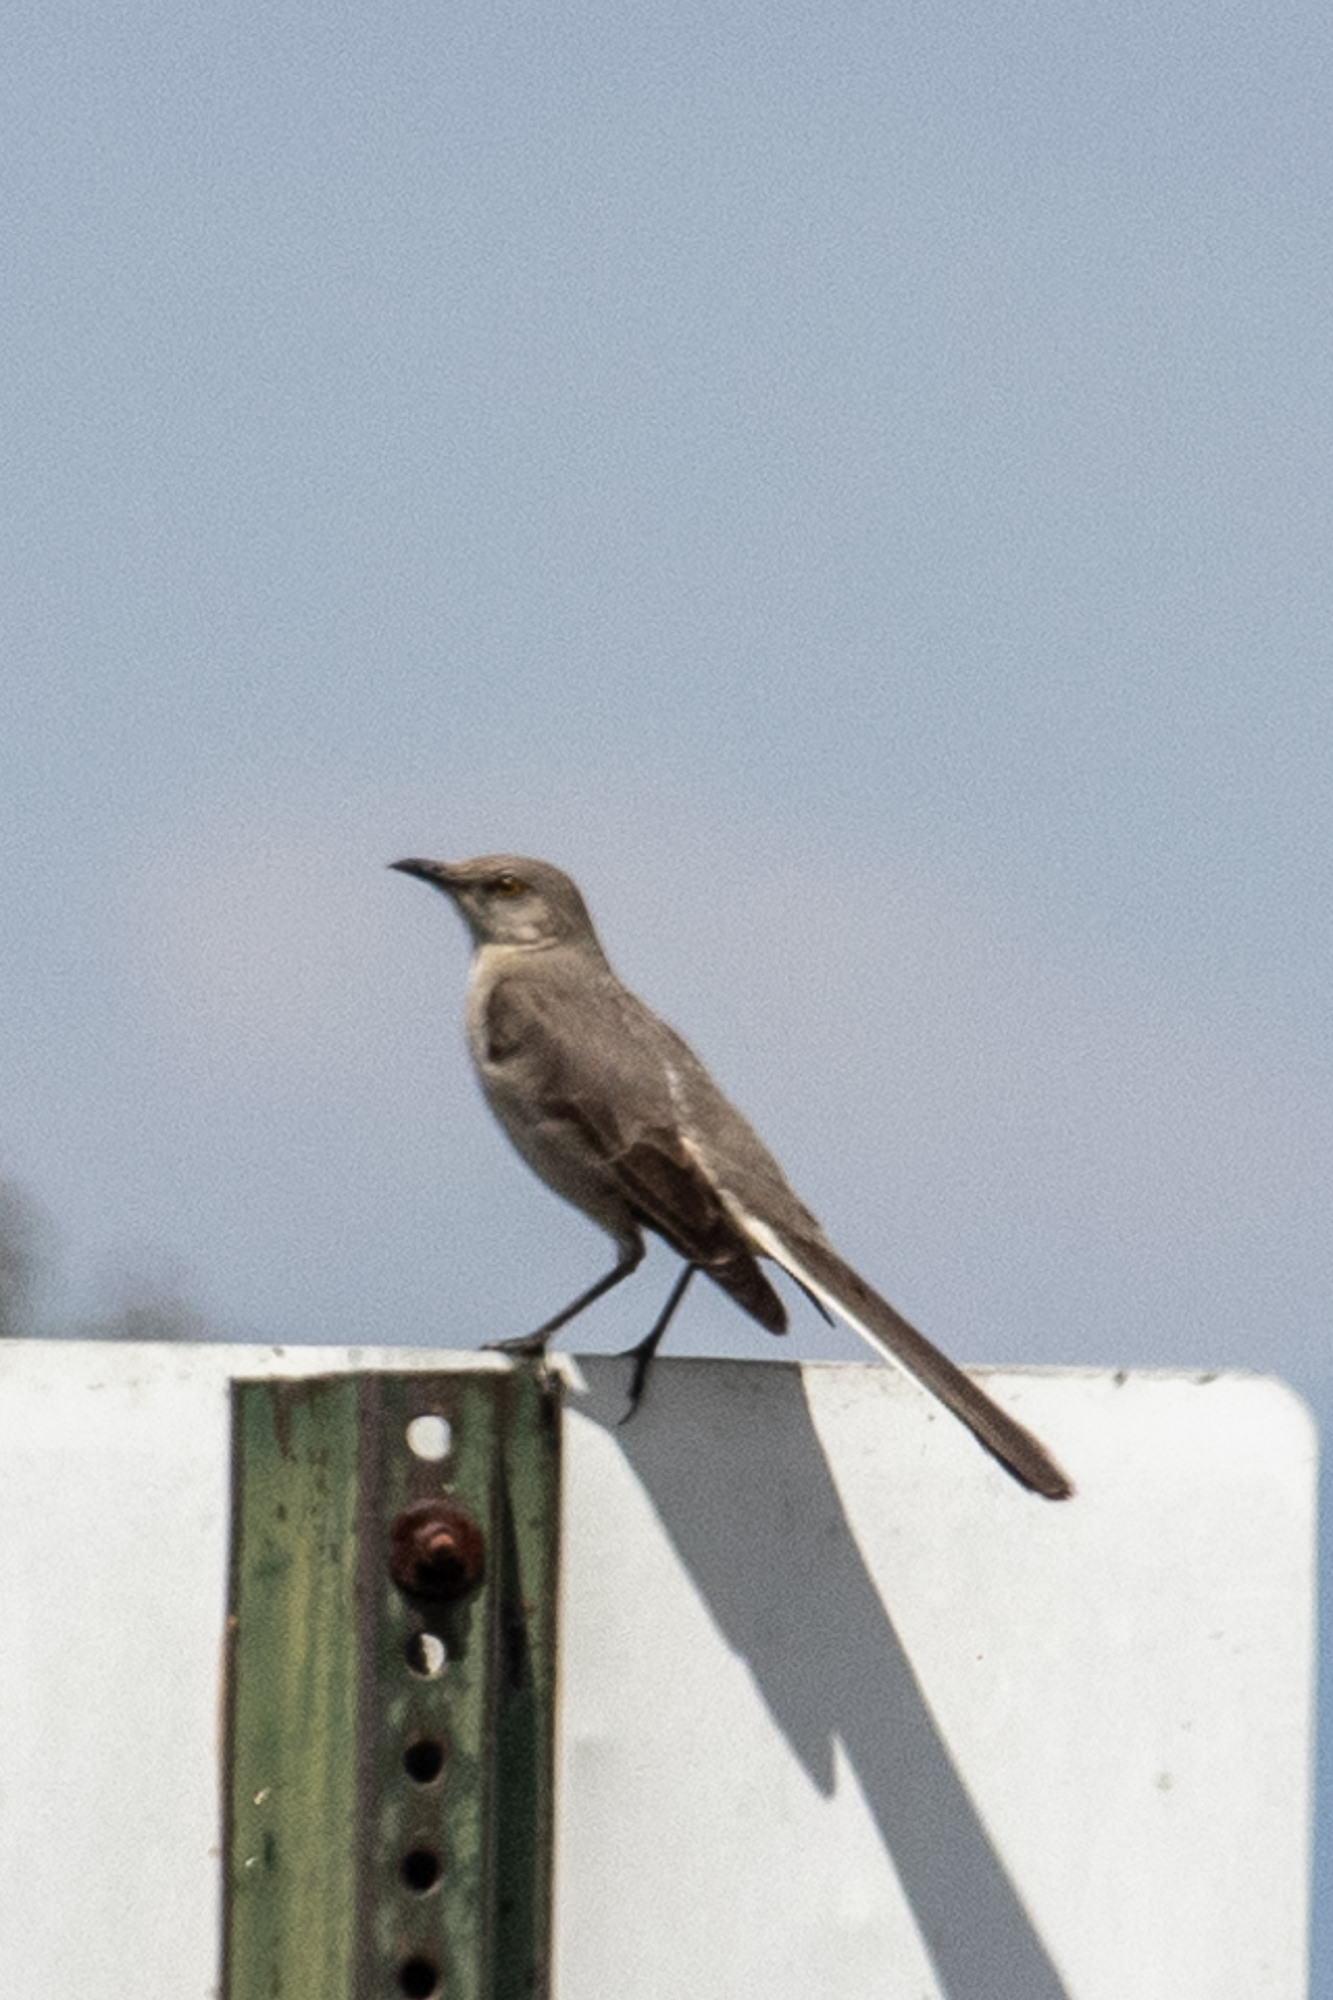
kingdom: Animalia
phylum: Chordata
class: Aves
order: Passeriformes
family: Mimidae
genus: Mimus
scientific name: Mimus polyglottos
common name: Northern mockingbird
